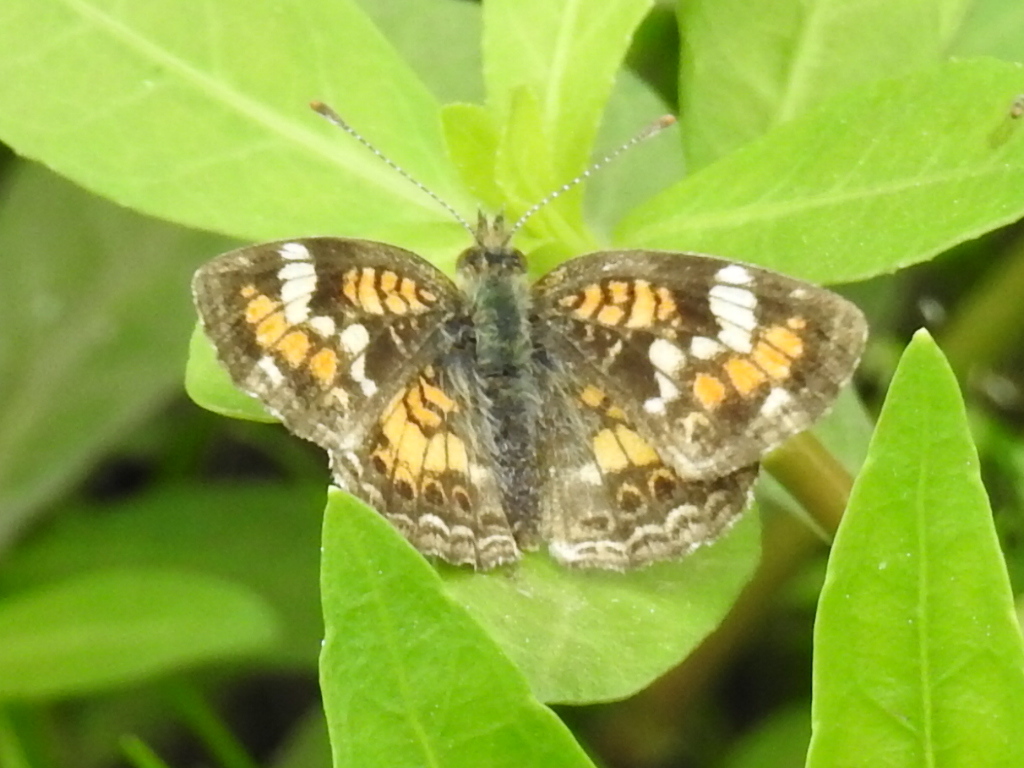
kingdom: Animalia
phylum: Arthropoda
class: Insecta
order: Lepidoptera
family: Nymphalidae
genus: Phyciodes
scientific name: Phyciodes phaon
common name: Phaon crescent
